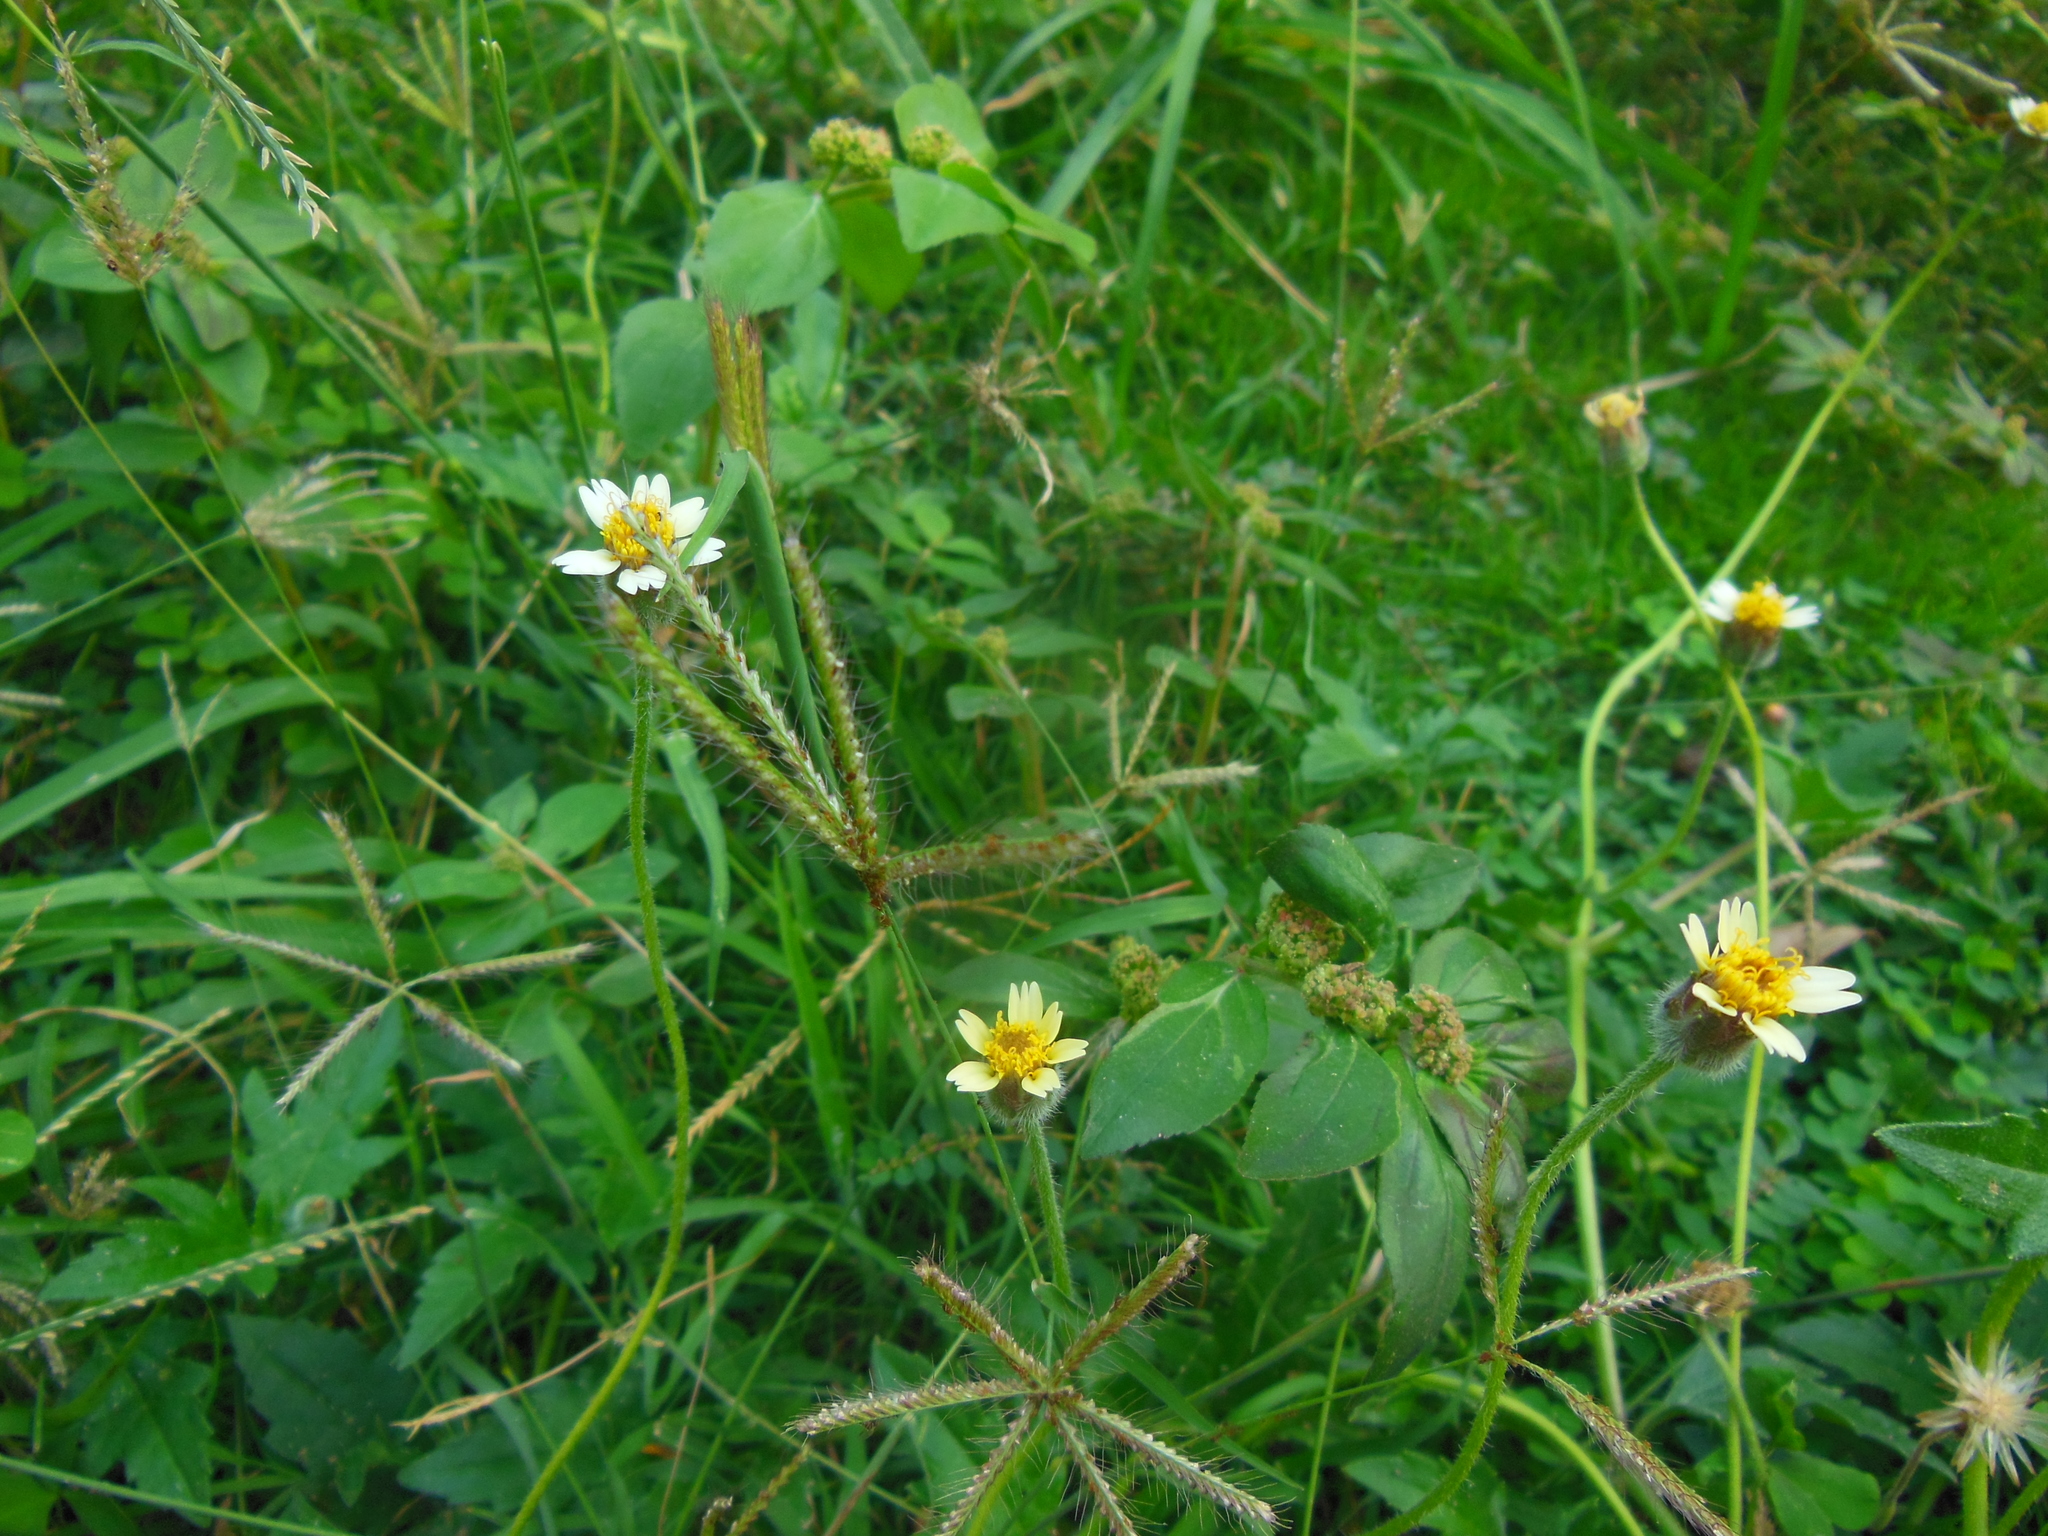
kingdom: Plantae
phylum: Tracheophyta
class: Magnoliopsida
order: Asterales
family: Asteraceae
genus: Tridax
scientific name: Tridax procumbens
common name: Coatbuttons
